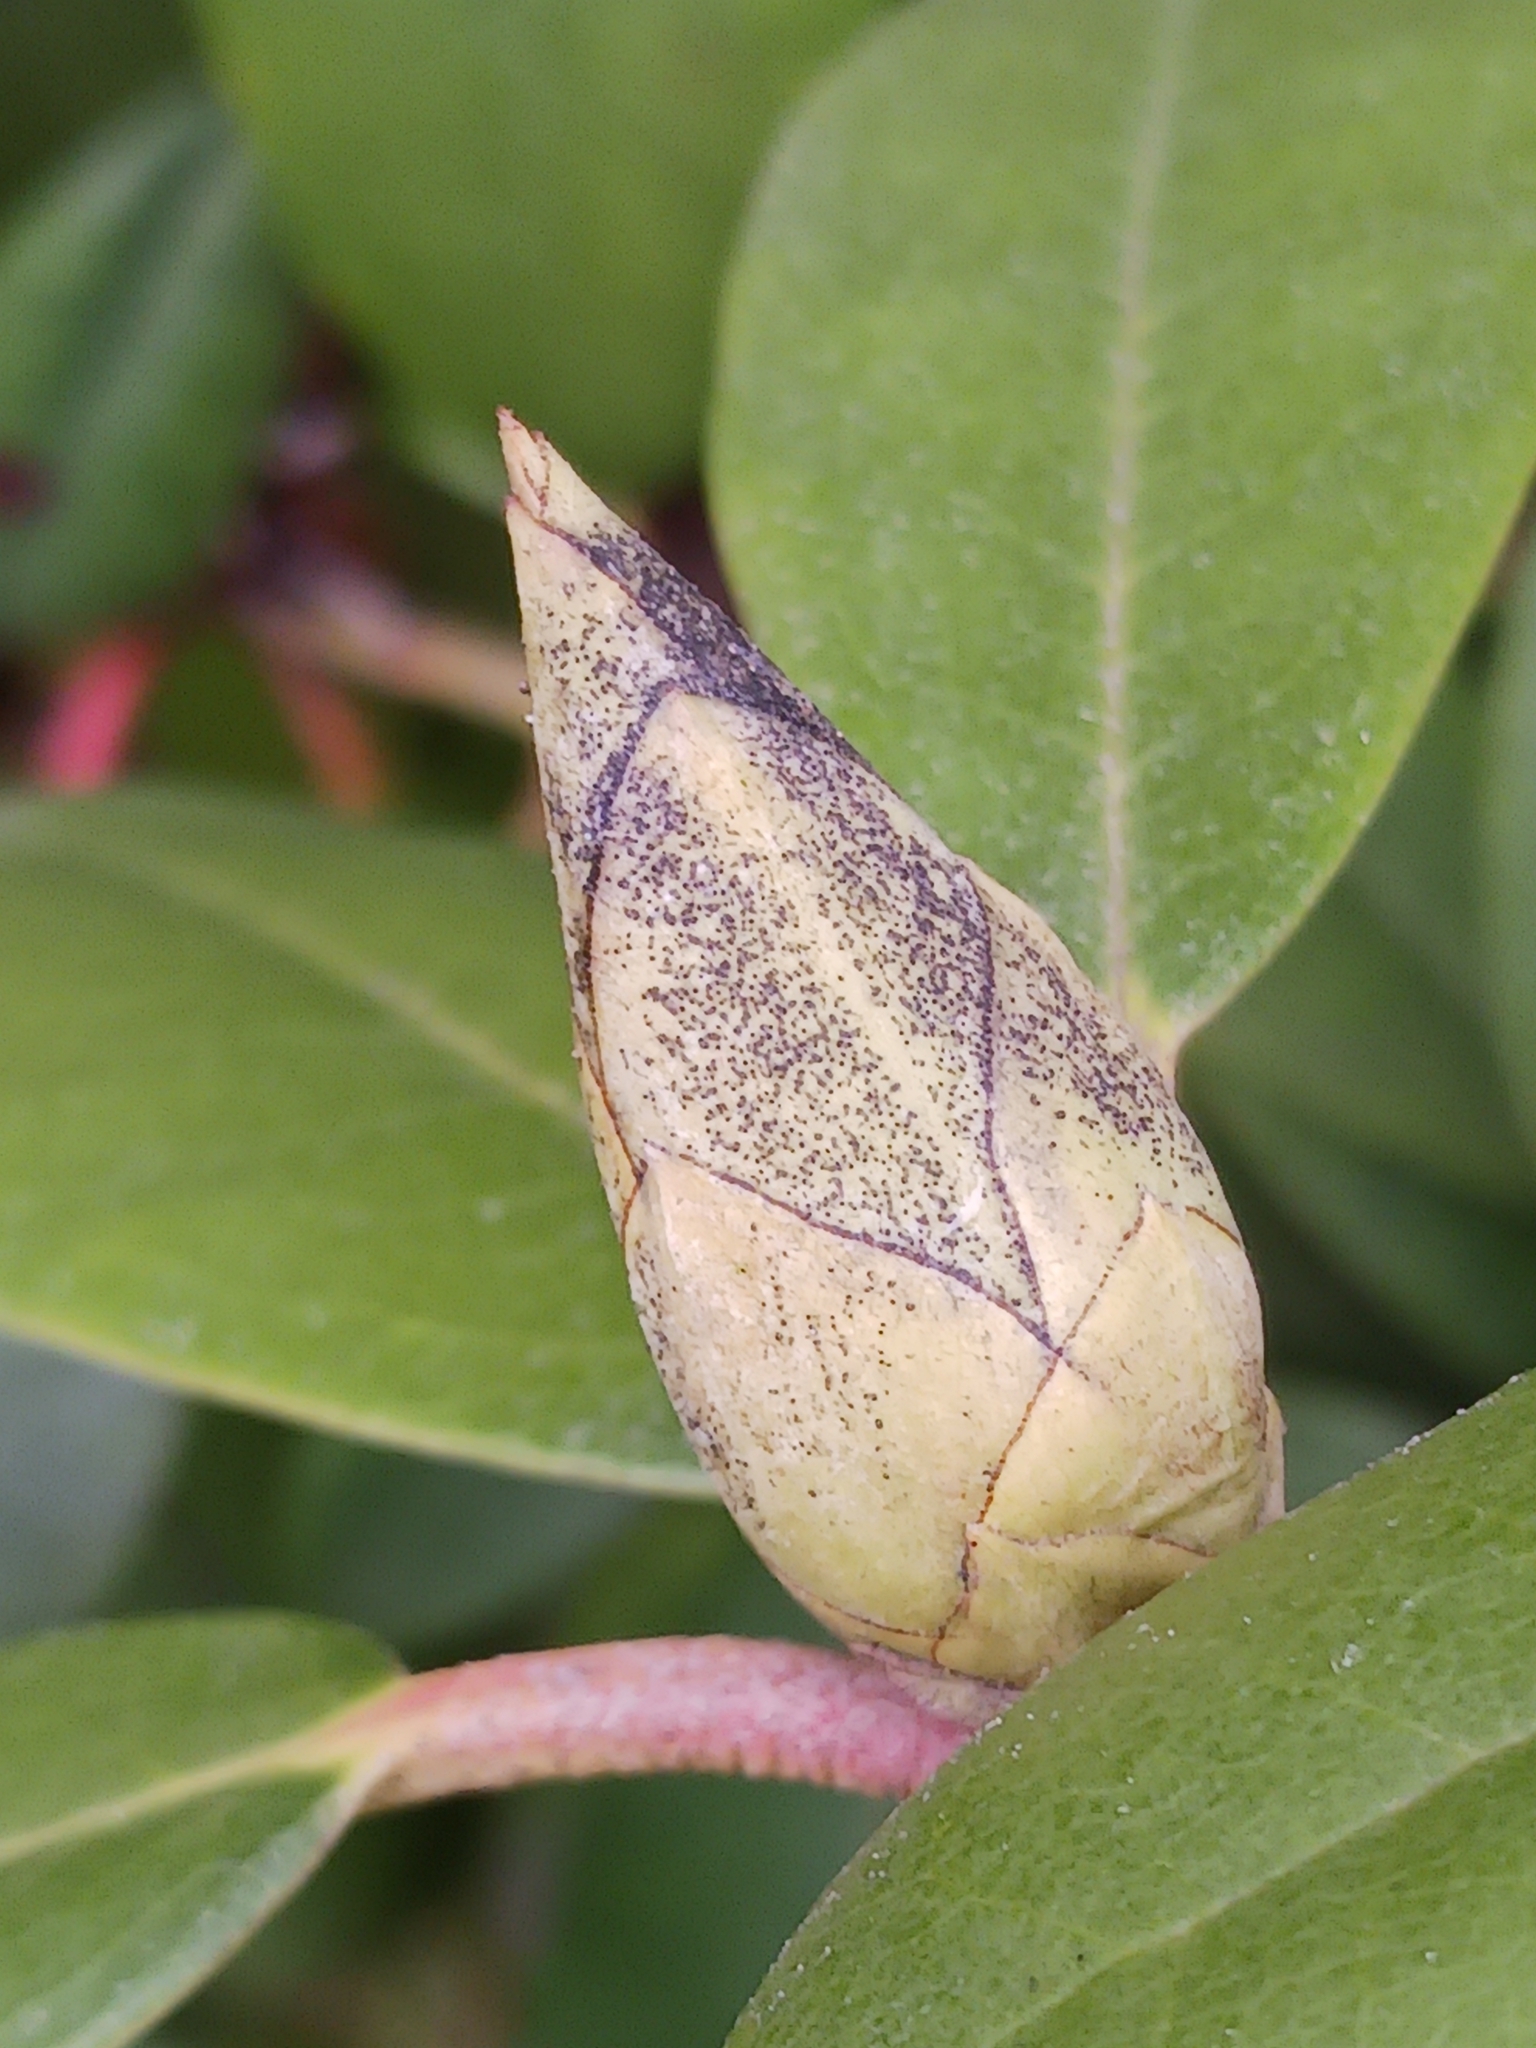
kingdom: Fungi
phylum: Ascomycota
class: Dothideomycetes
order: Pleosporales
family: Melanommataceae
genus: Seifertia
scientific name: Seifertia azaleae
